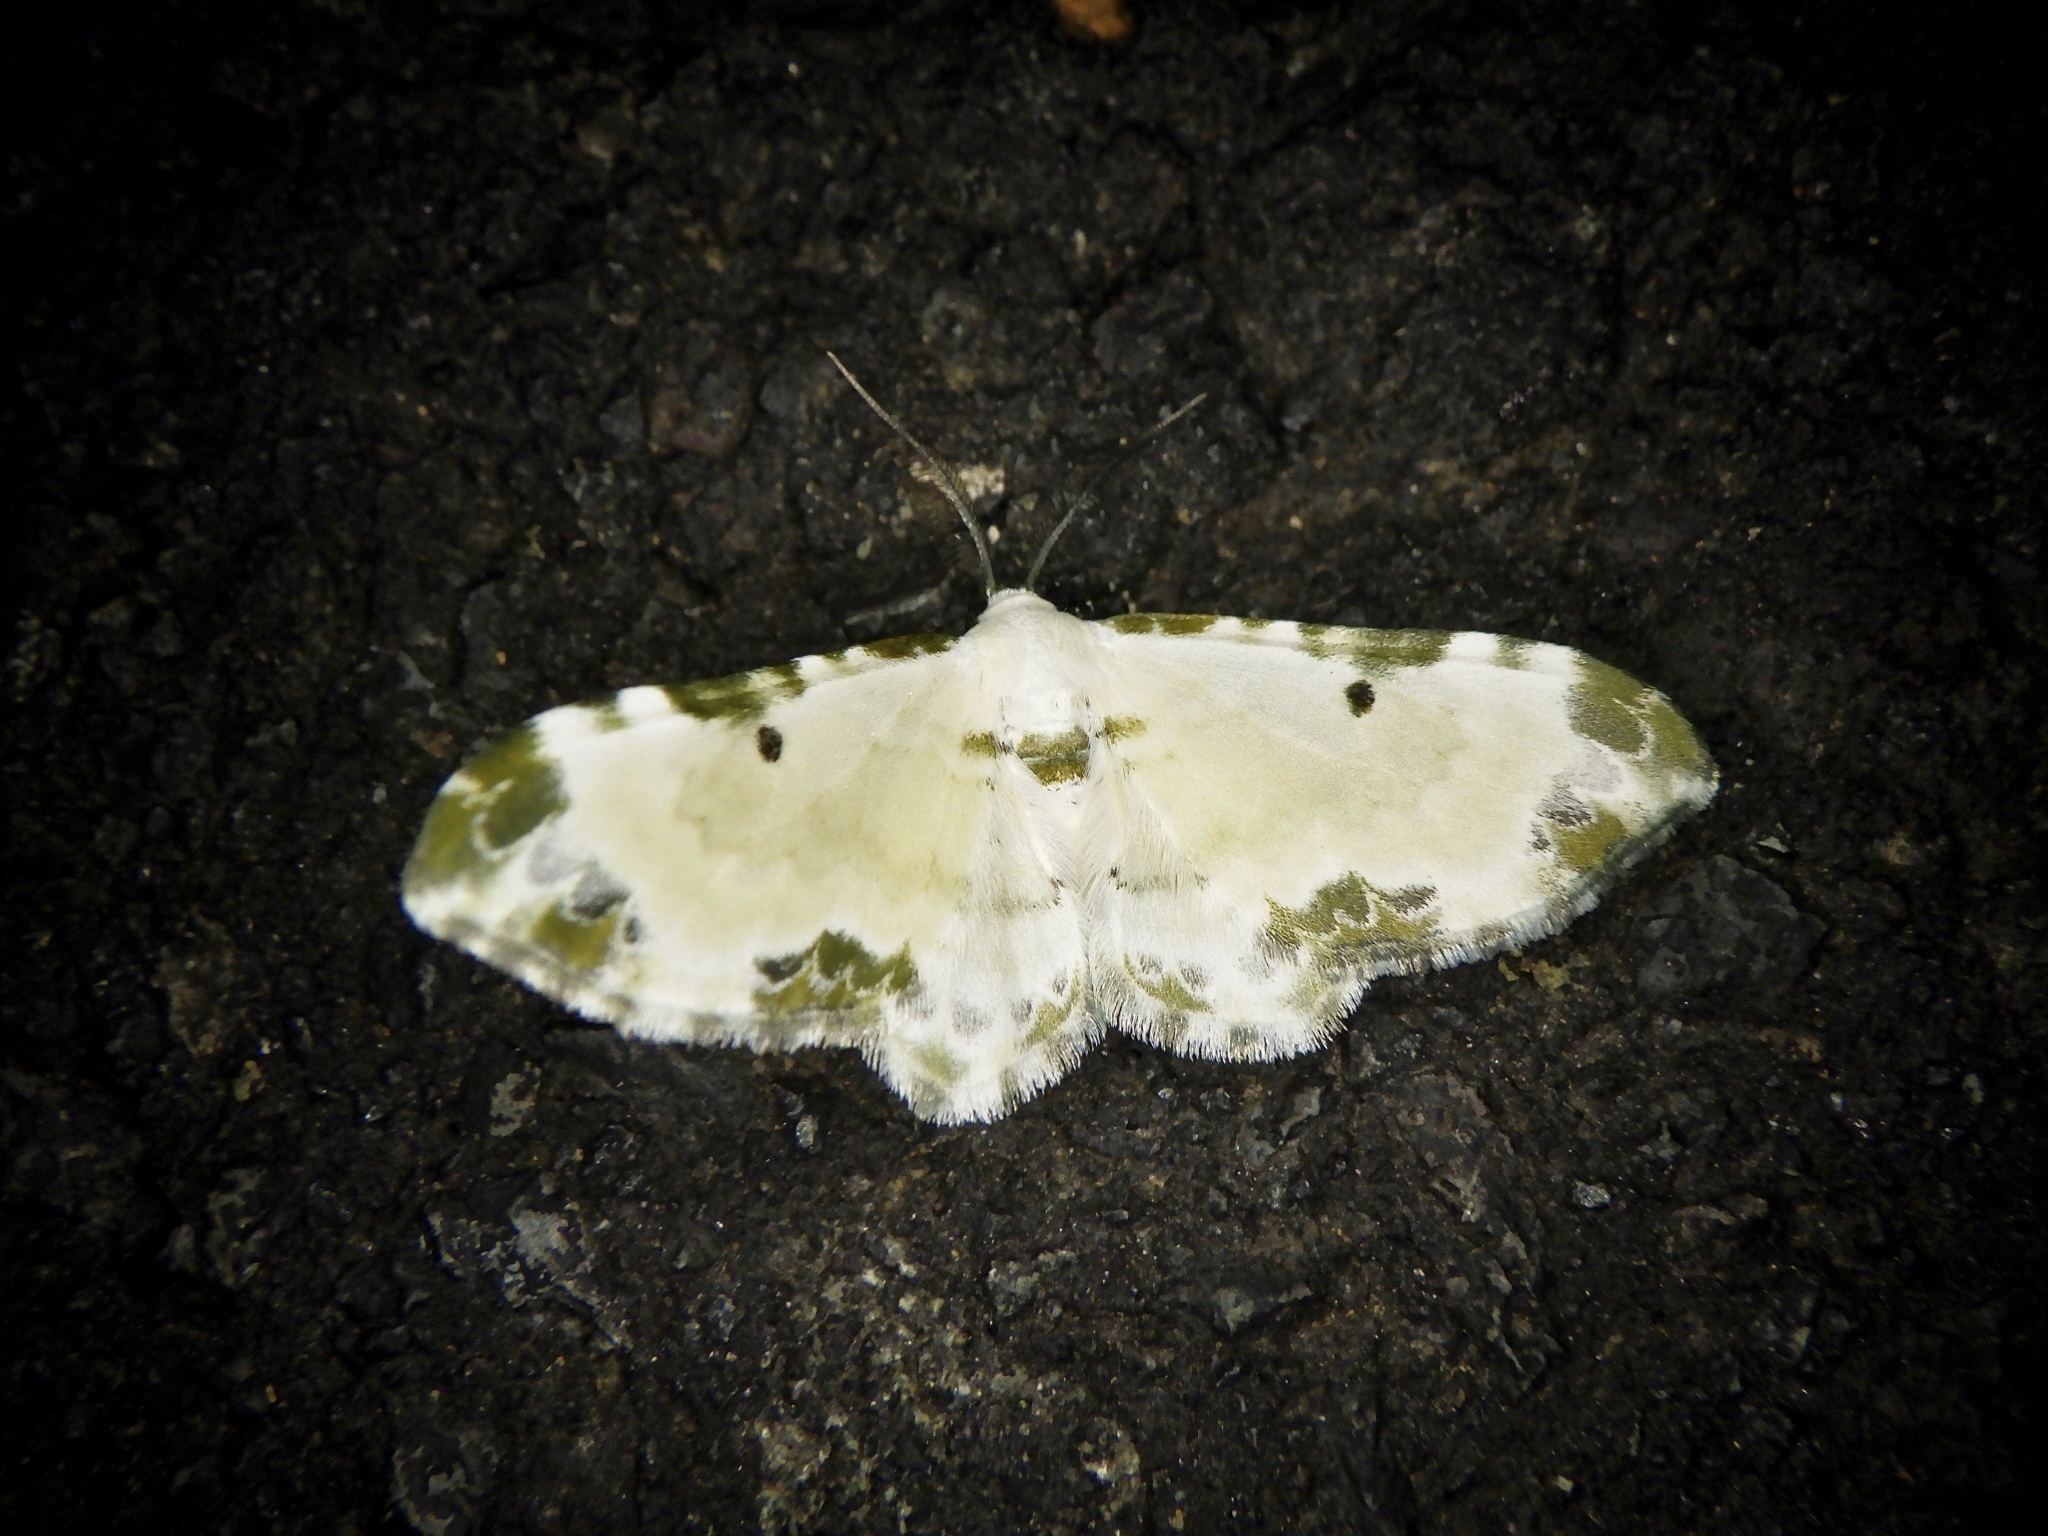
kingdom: Animalia
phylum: Arthropoda
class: Insecta
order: Lepidoptera
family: Geometridae
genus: Tyloptera
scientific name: Tyloptera bella
